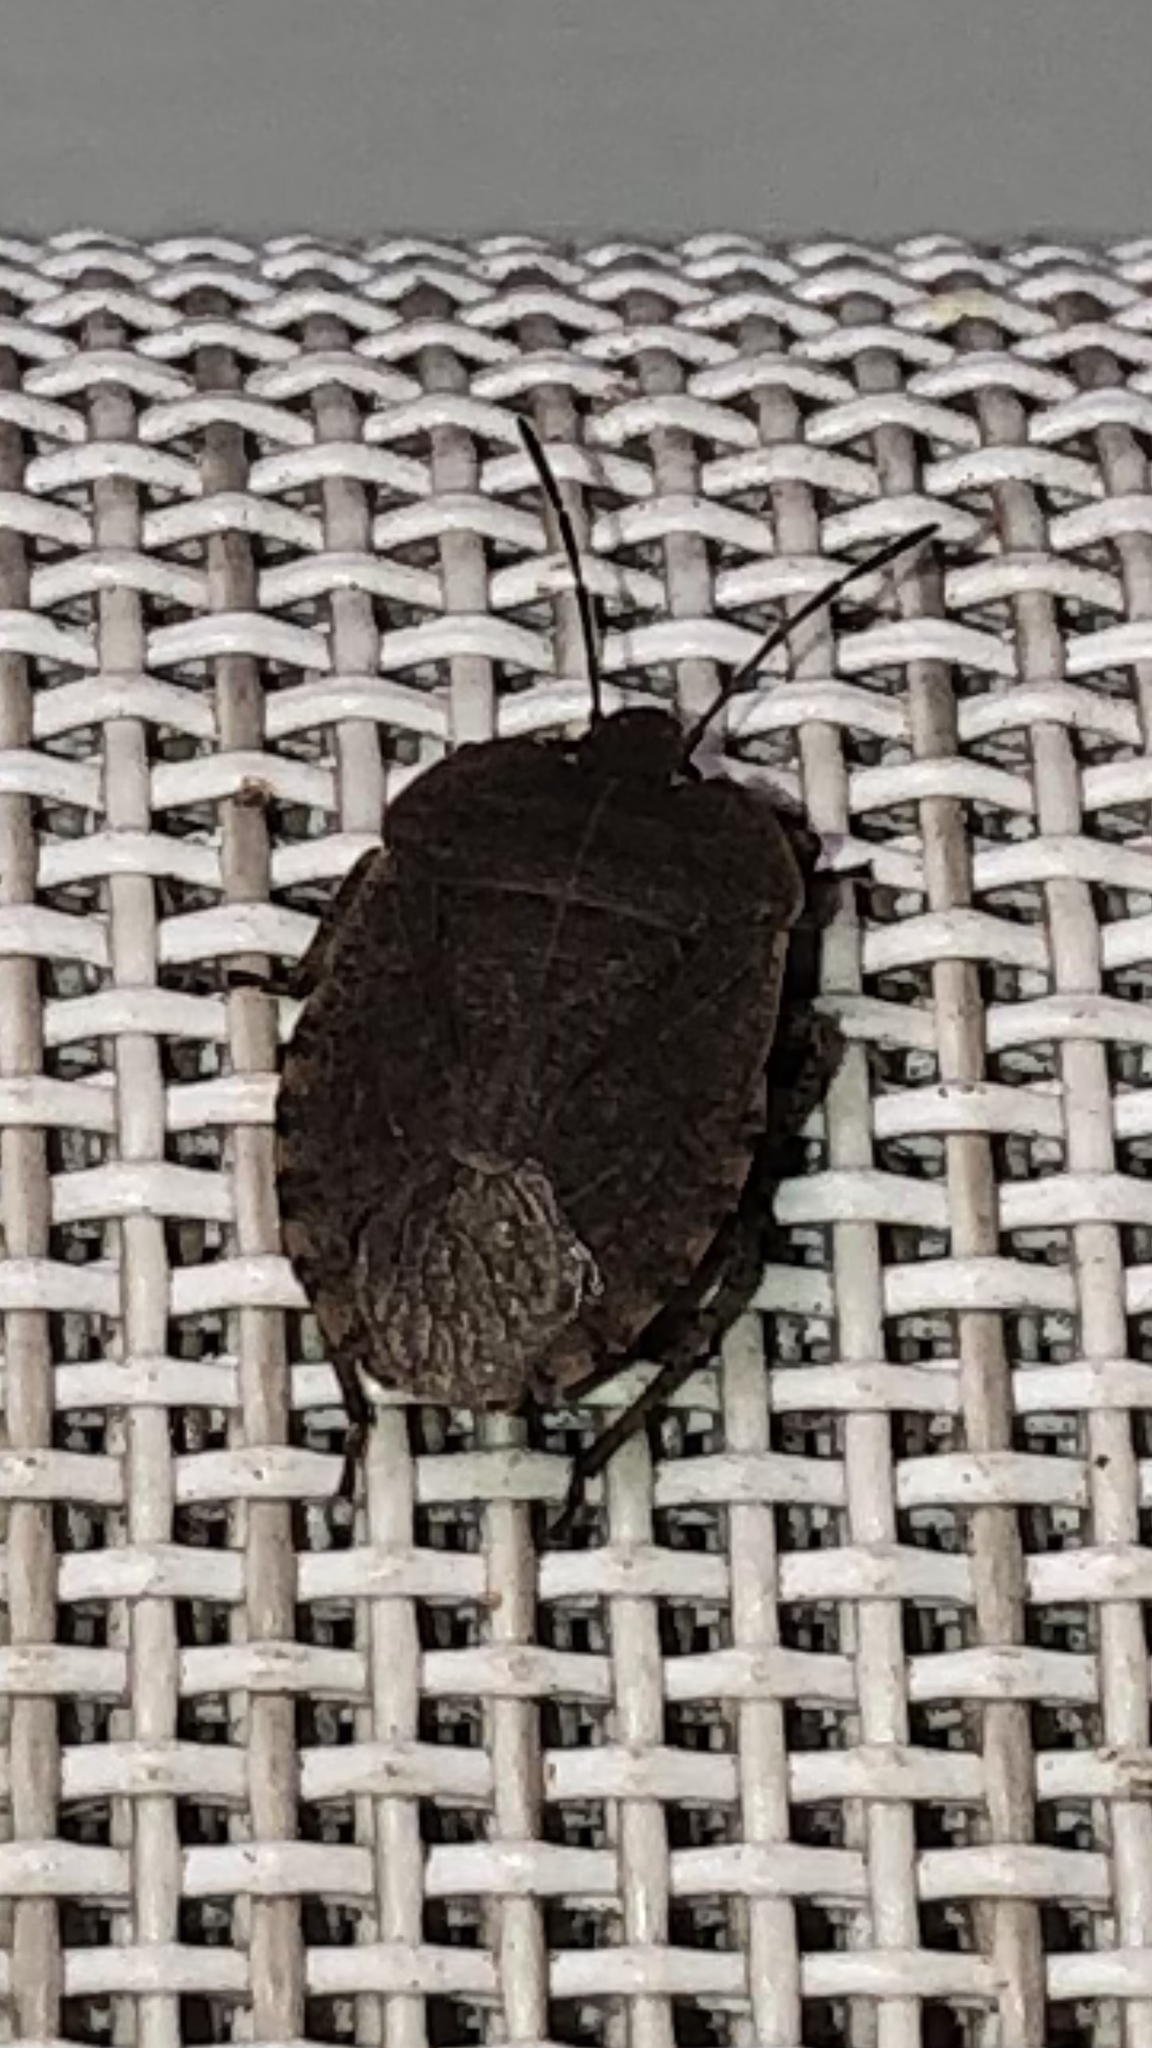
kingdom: Animalia
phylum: Arthropoda
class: Insecta
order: Hemiptera
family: Pentatomidae
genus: Menecles
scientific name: Menecles insertus
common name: Elf shoe stink bug
